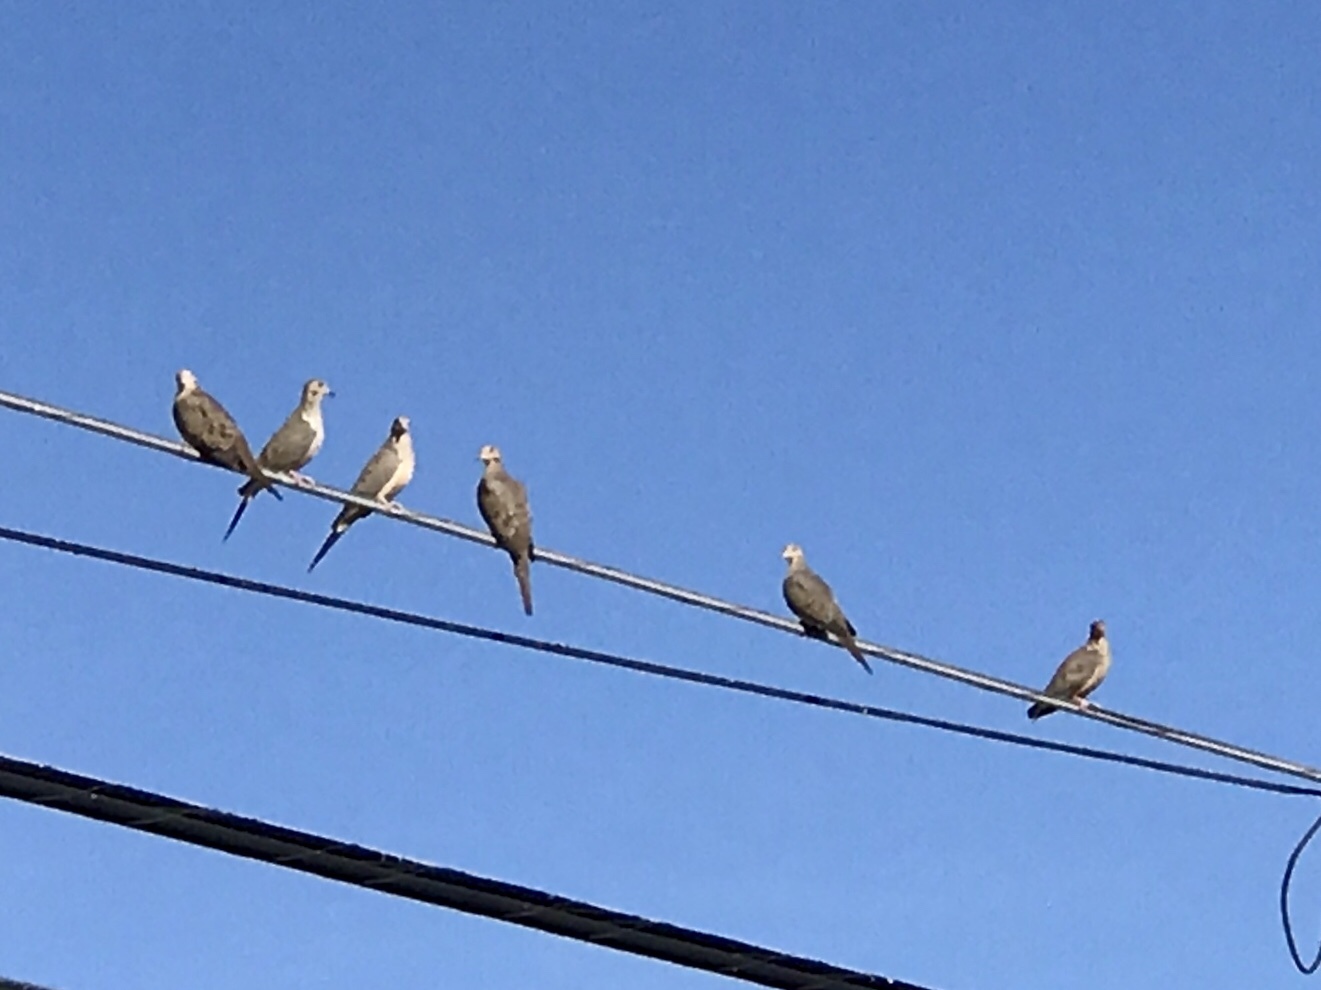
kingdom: Animalia
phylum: Chordata
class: Aves
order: Columbiformes
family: Columbidae
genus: Zenaida
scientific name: Zenaida macroura
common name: Mourning dove
